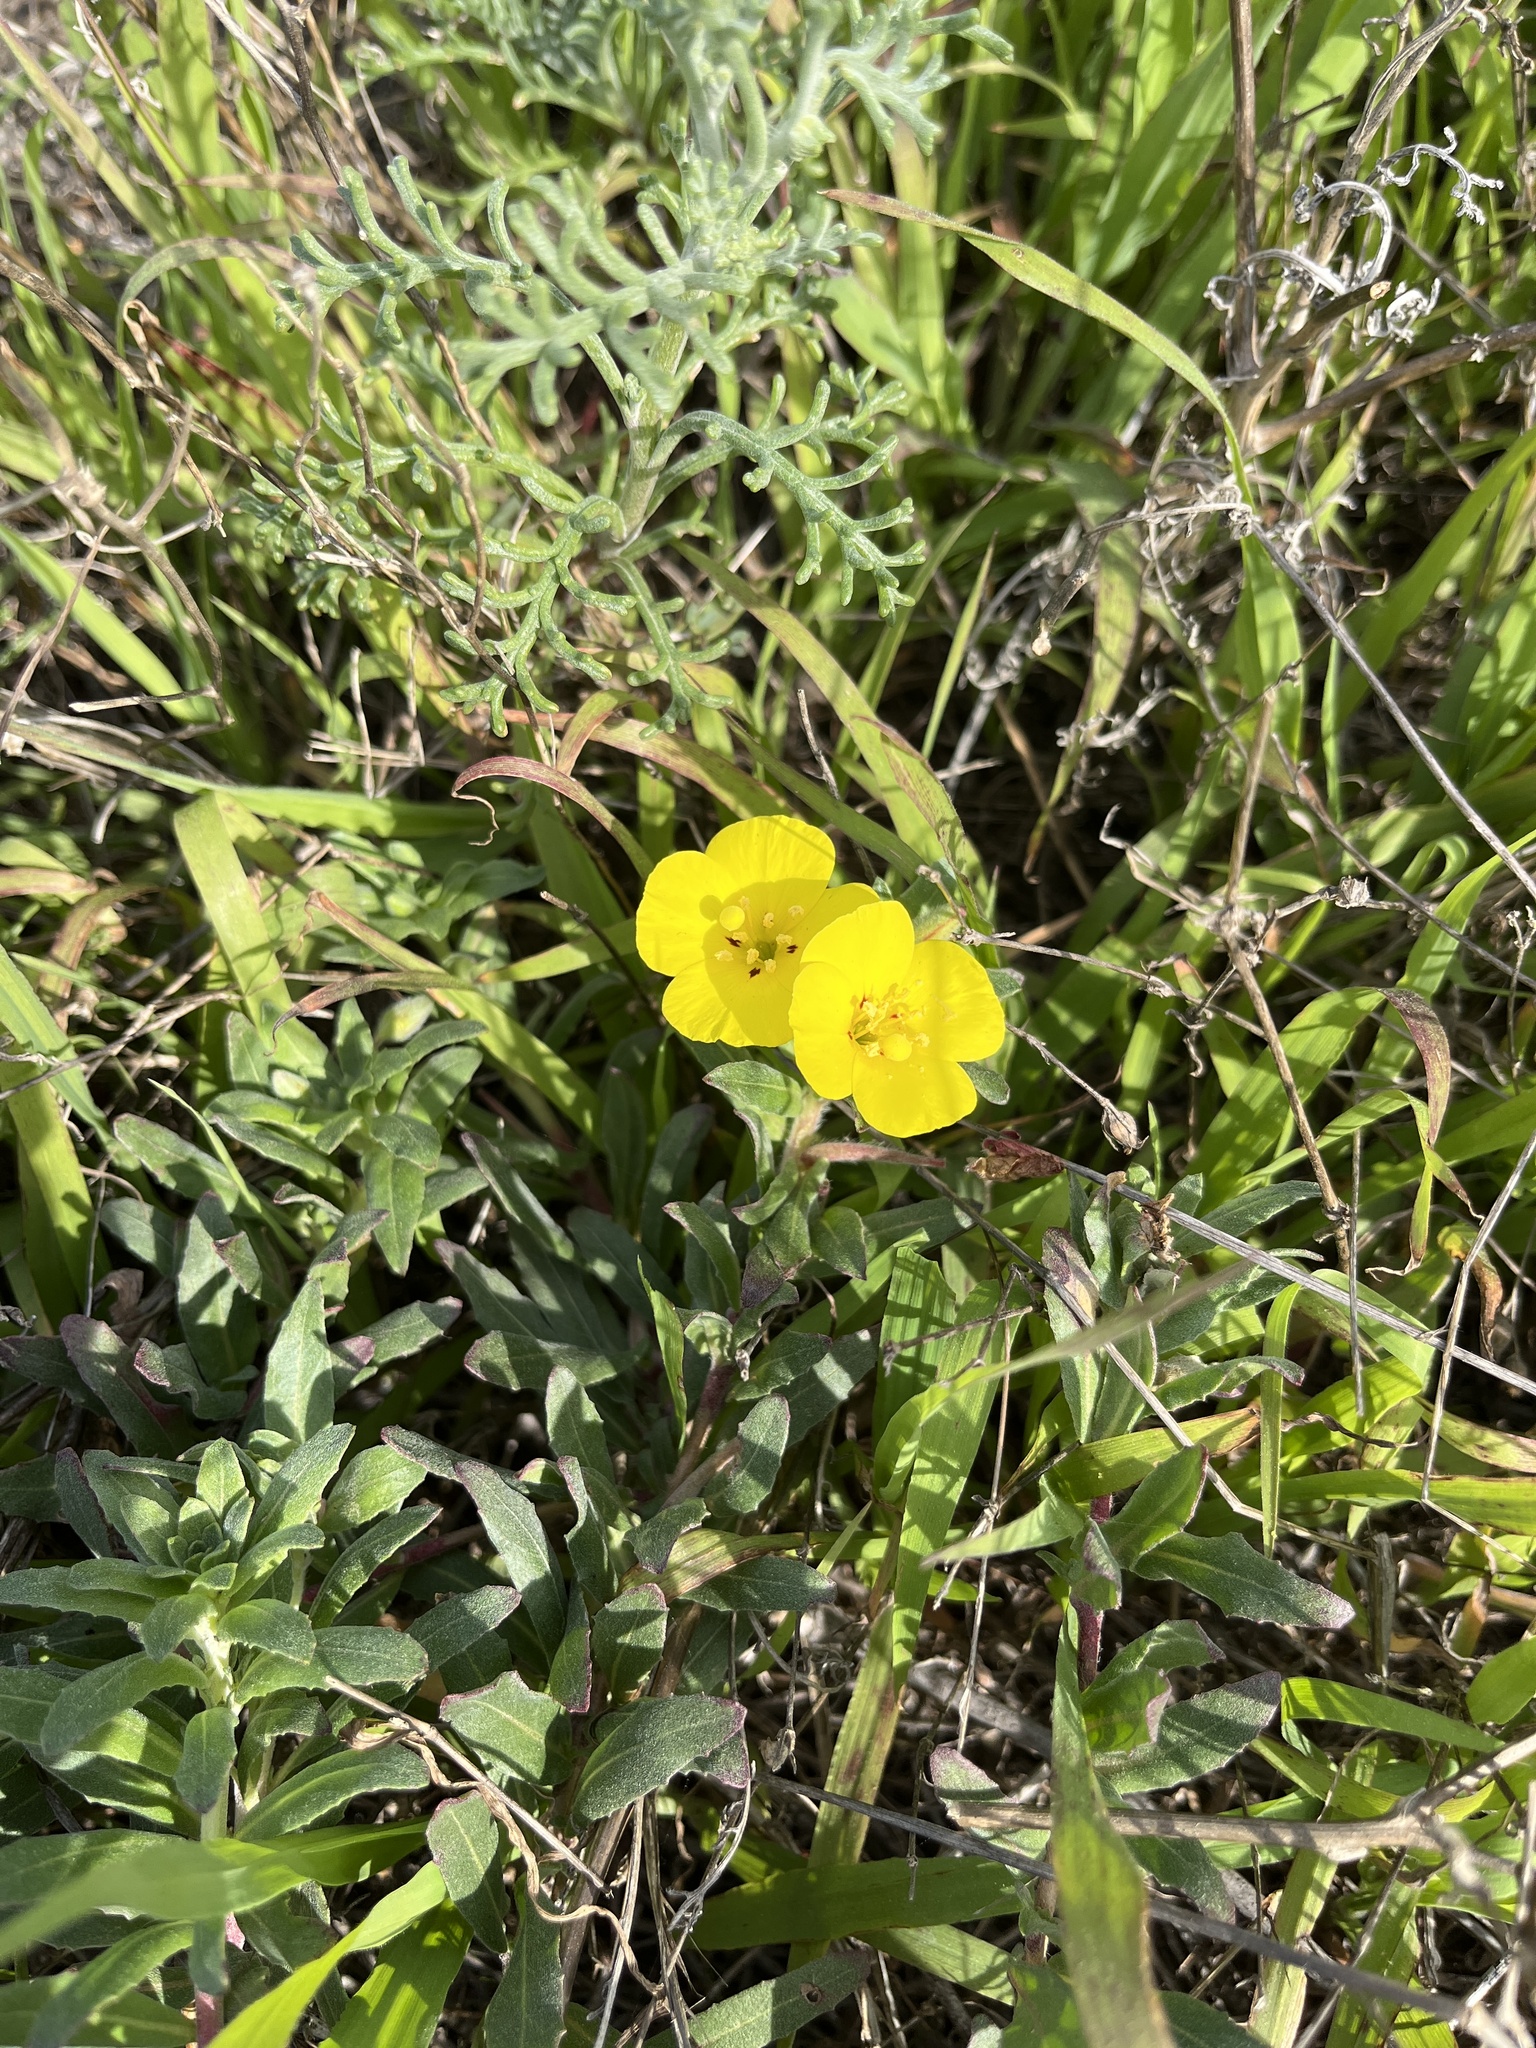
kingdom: Plantae
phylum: Tracheophyta
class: Magnoliopsida
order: Myrtales
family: Onagraceae
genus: Camissoniopsis
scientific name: Camissoniopsis cheiranthifolia
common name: Beach suncup
